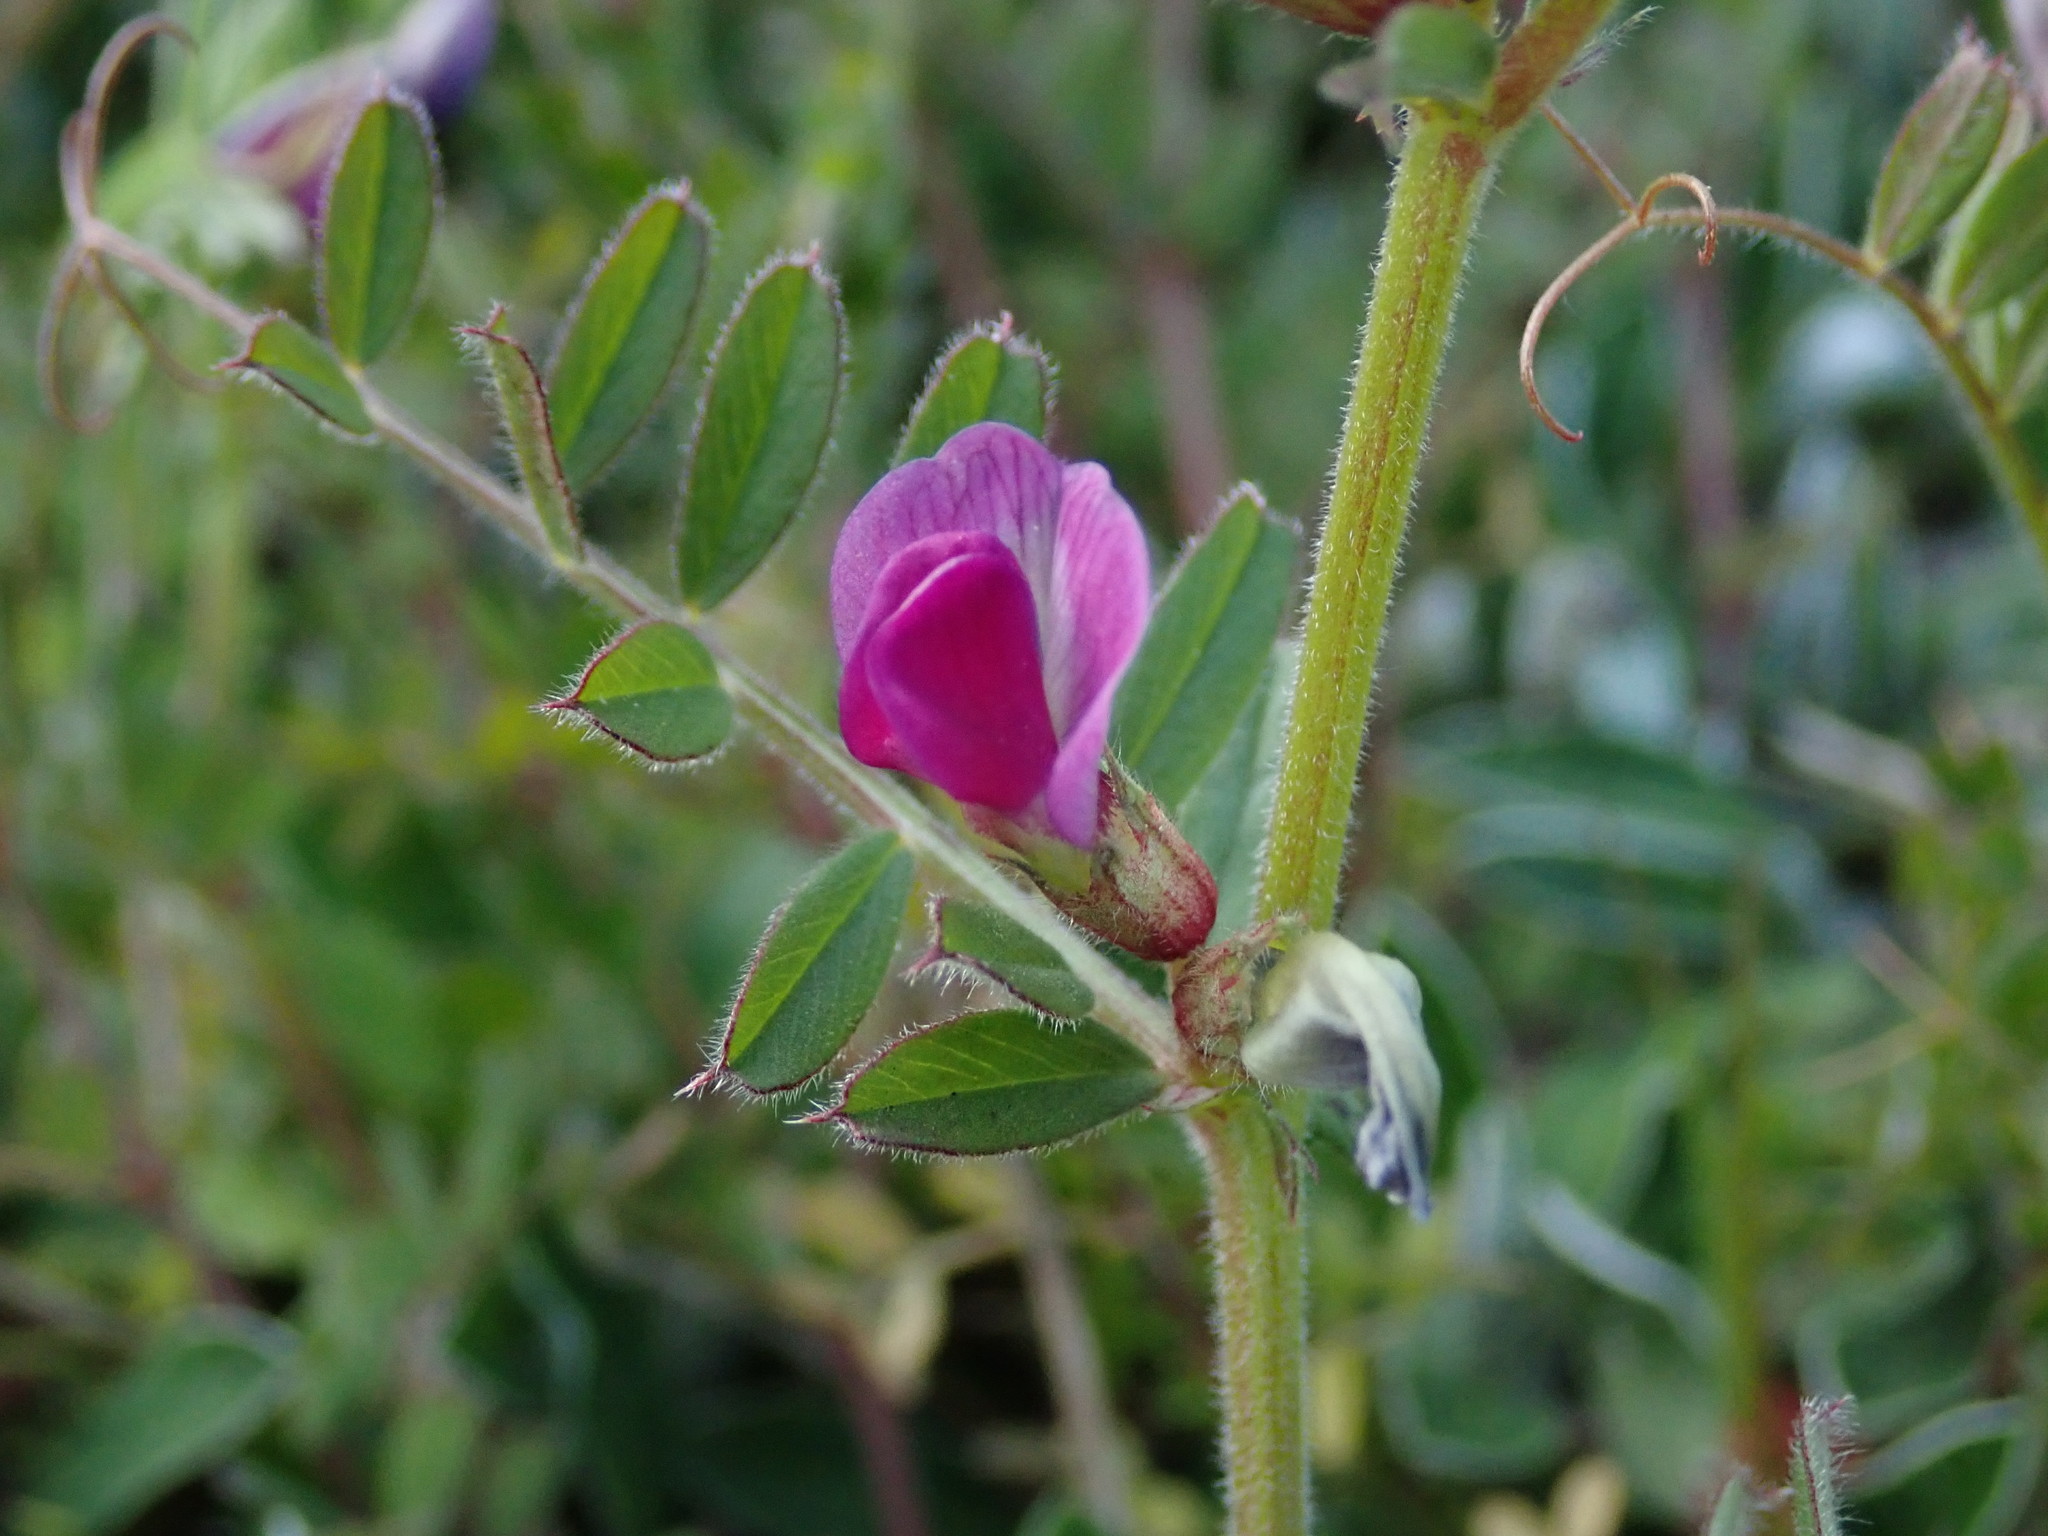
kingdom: Plantae
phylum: Tracheophyta
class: Magnoliopsida
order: Fabales
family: Fabaceae
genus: Vicia
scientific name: Vicia sativa
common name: Garden vetch
